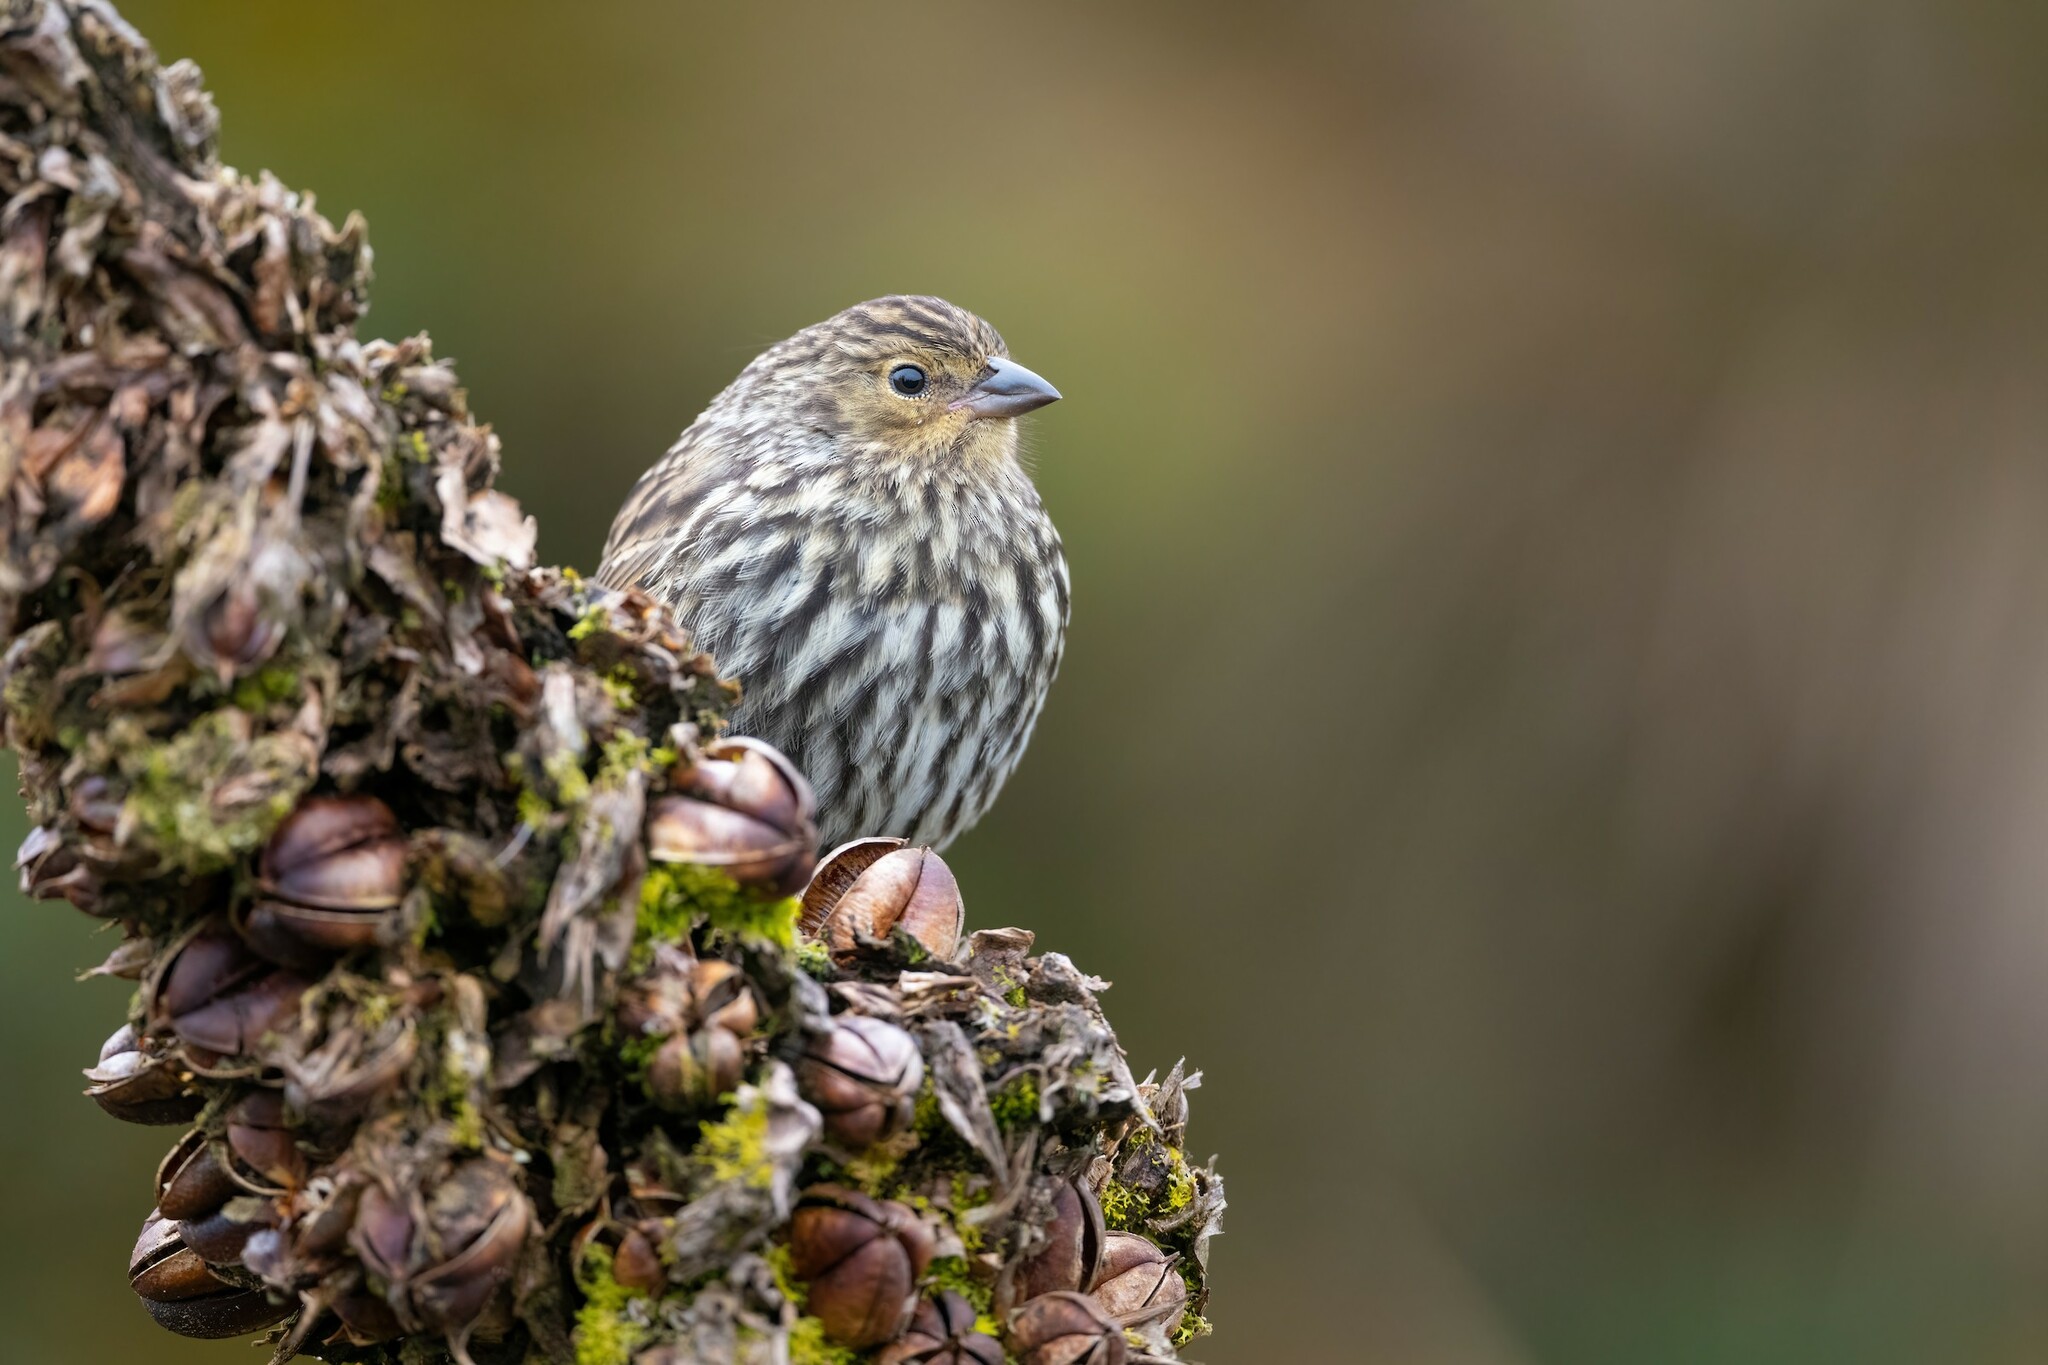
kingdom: Animalia
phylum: Chordata
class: Aves
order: Passeriformes
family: Thraupidae
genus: Geospizopsis
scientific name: Geospizopsis unicolor
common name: Plumbeous sierra-finch
